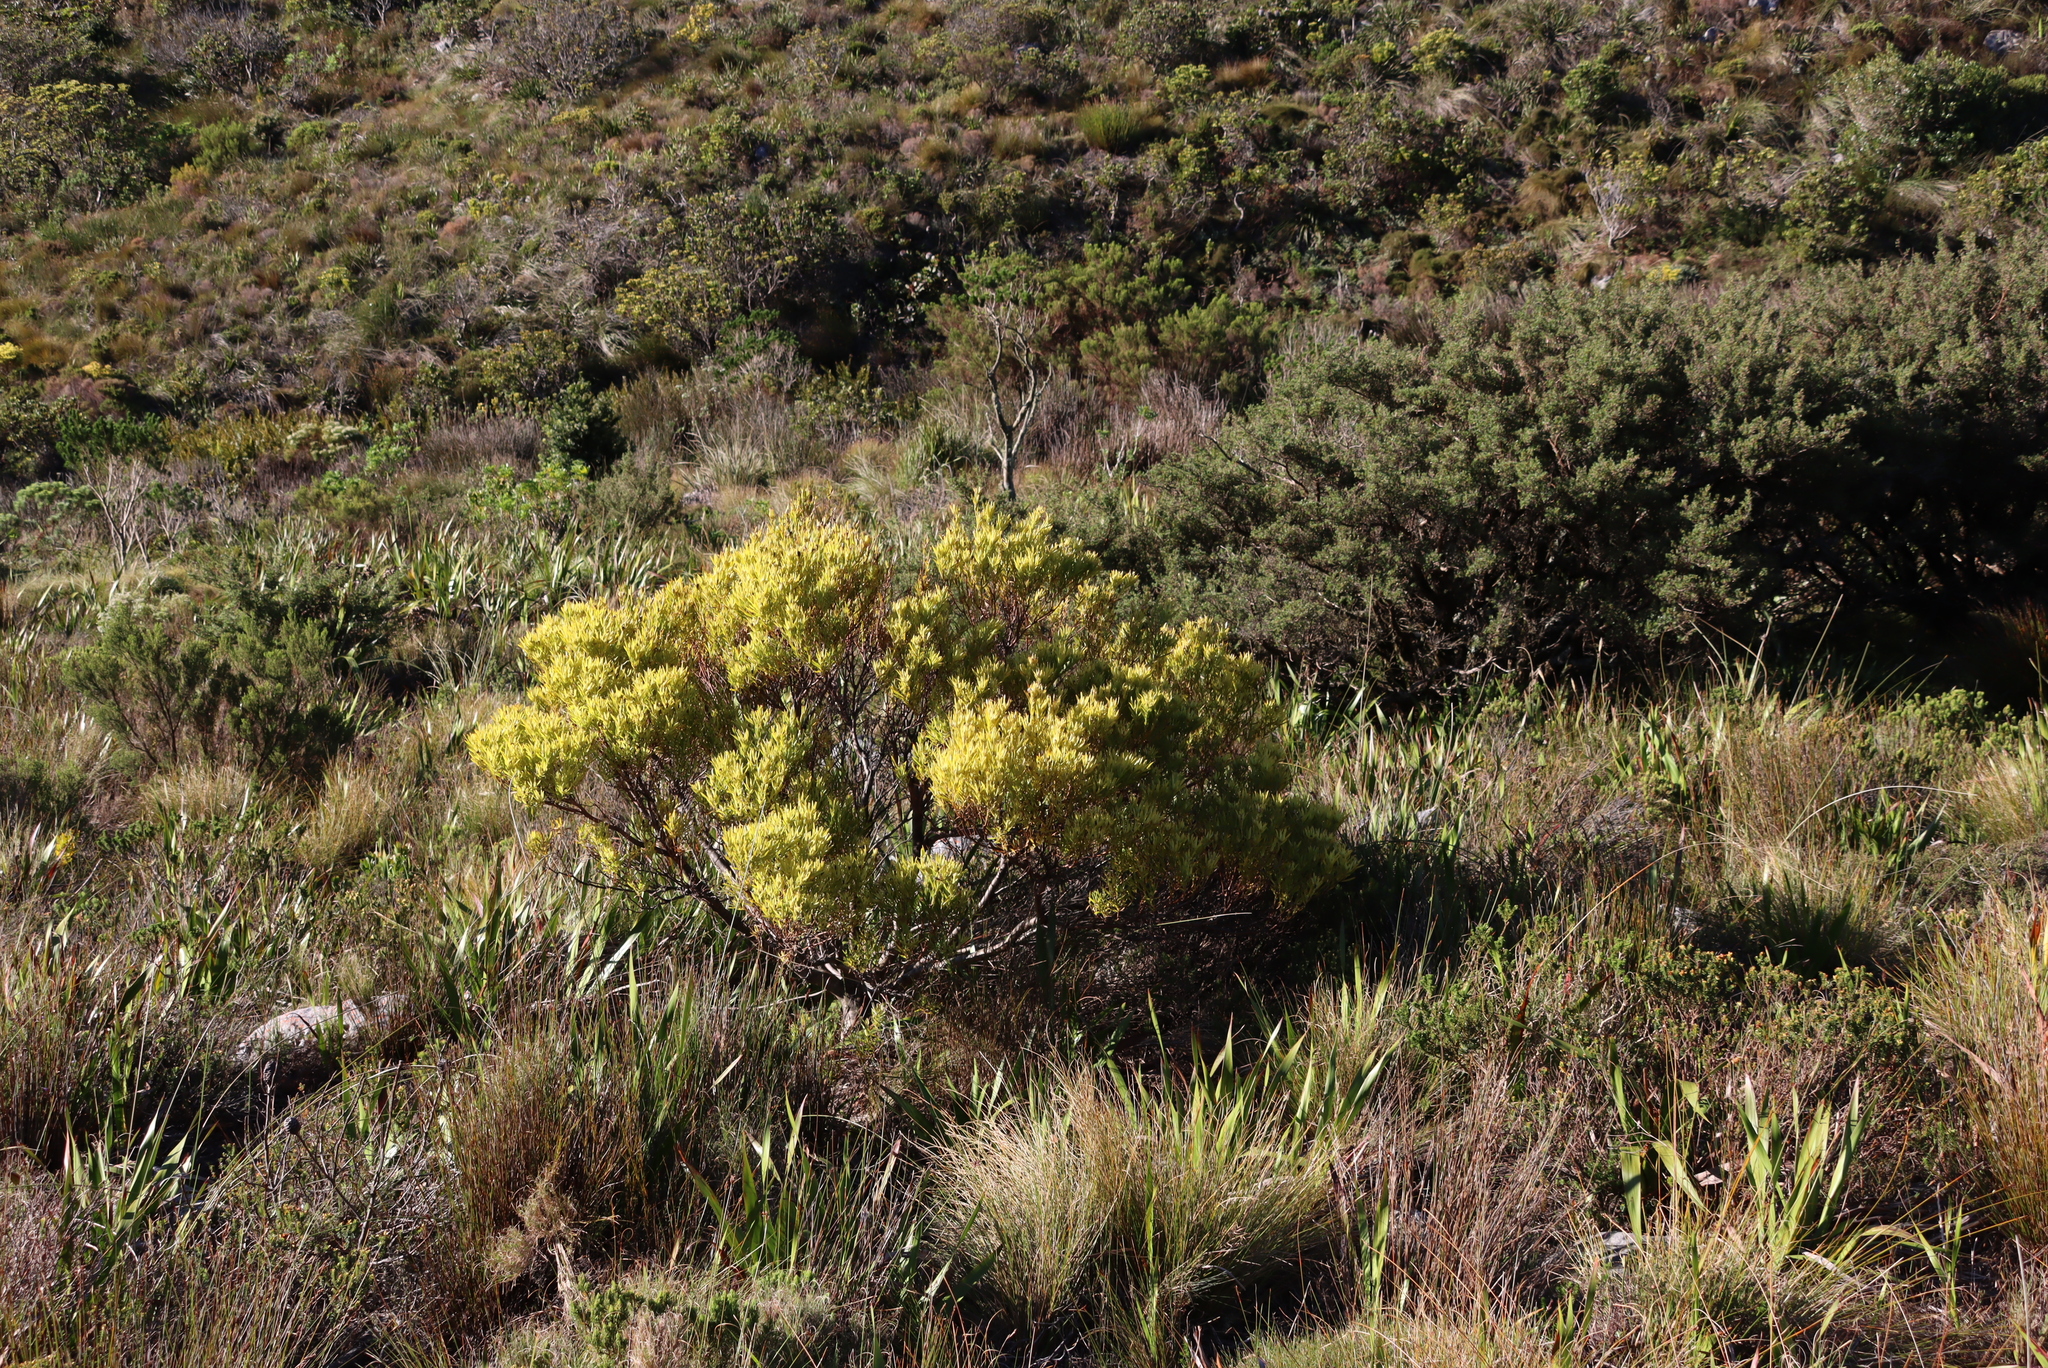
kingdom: Plantae
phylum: Tracheophyta
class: Magnoliopsida
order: Proteales
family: Proteaceae
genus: Leucadendron
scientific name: Leucadendron xanthoconus
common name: Sickle-leaf conebush
